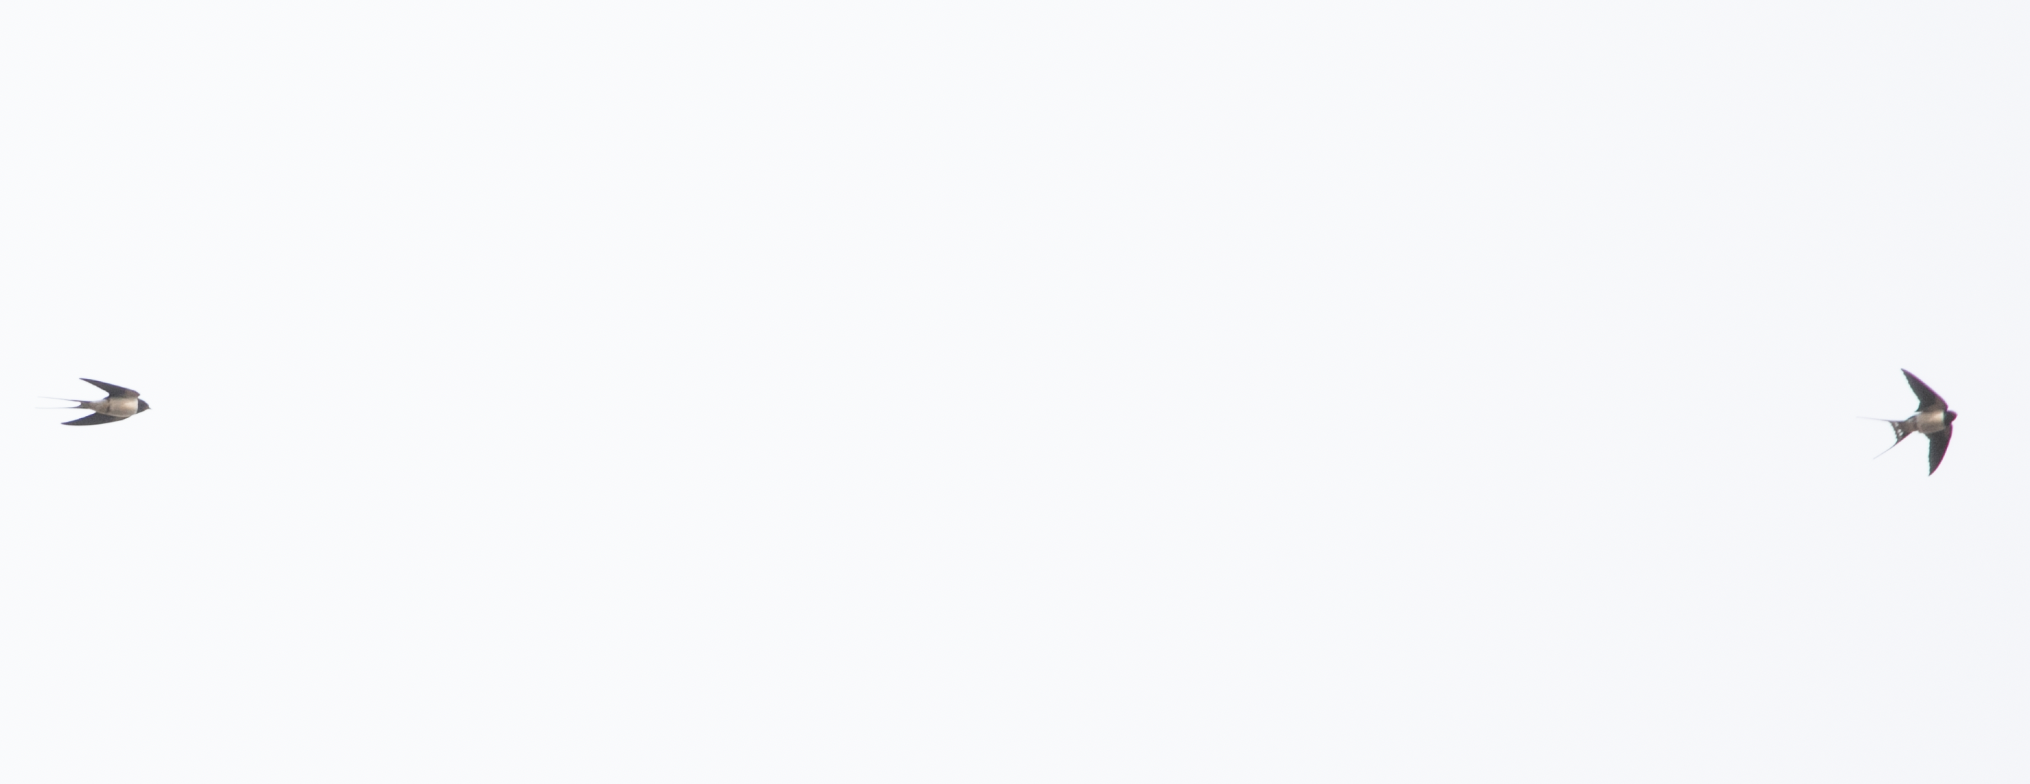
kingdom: Animalia
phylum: Chordata
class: Aves
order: Passeriformes
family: Hirundinidae
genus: Hirundo
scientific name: Hirundo rustica
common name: Barn swallow
